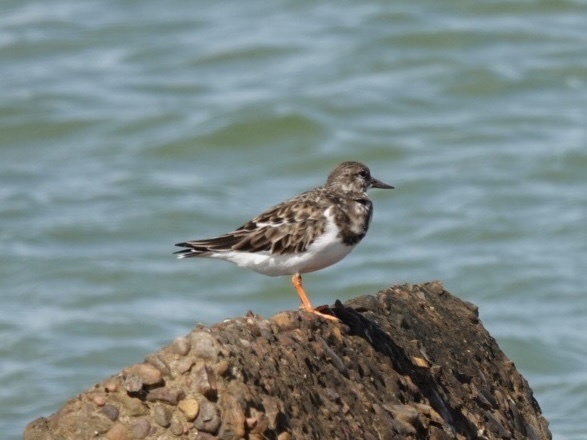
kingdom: Animalia
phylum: Chordata
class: Aves
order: Charadriiformes
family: Scolopacidae
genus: Arenaria
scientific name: Arenaria interpres
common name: Ruddy turnstone
